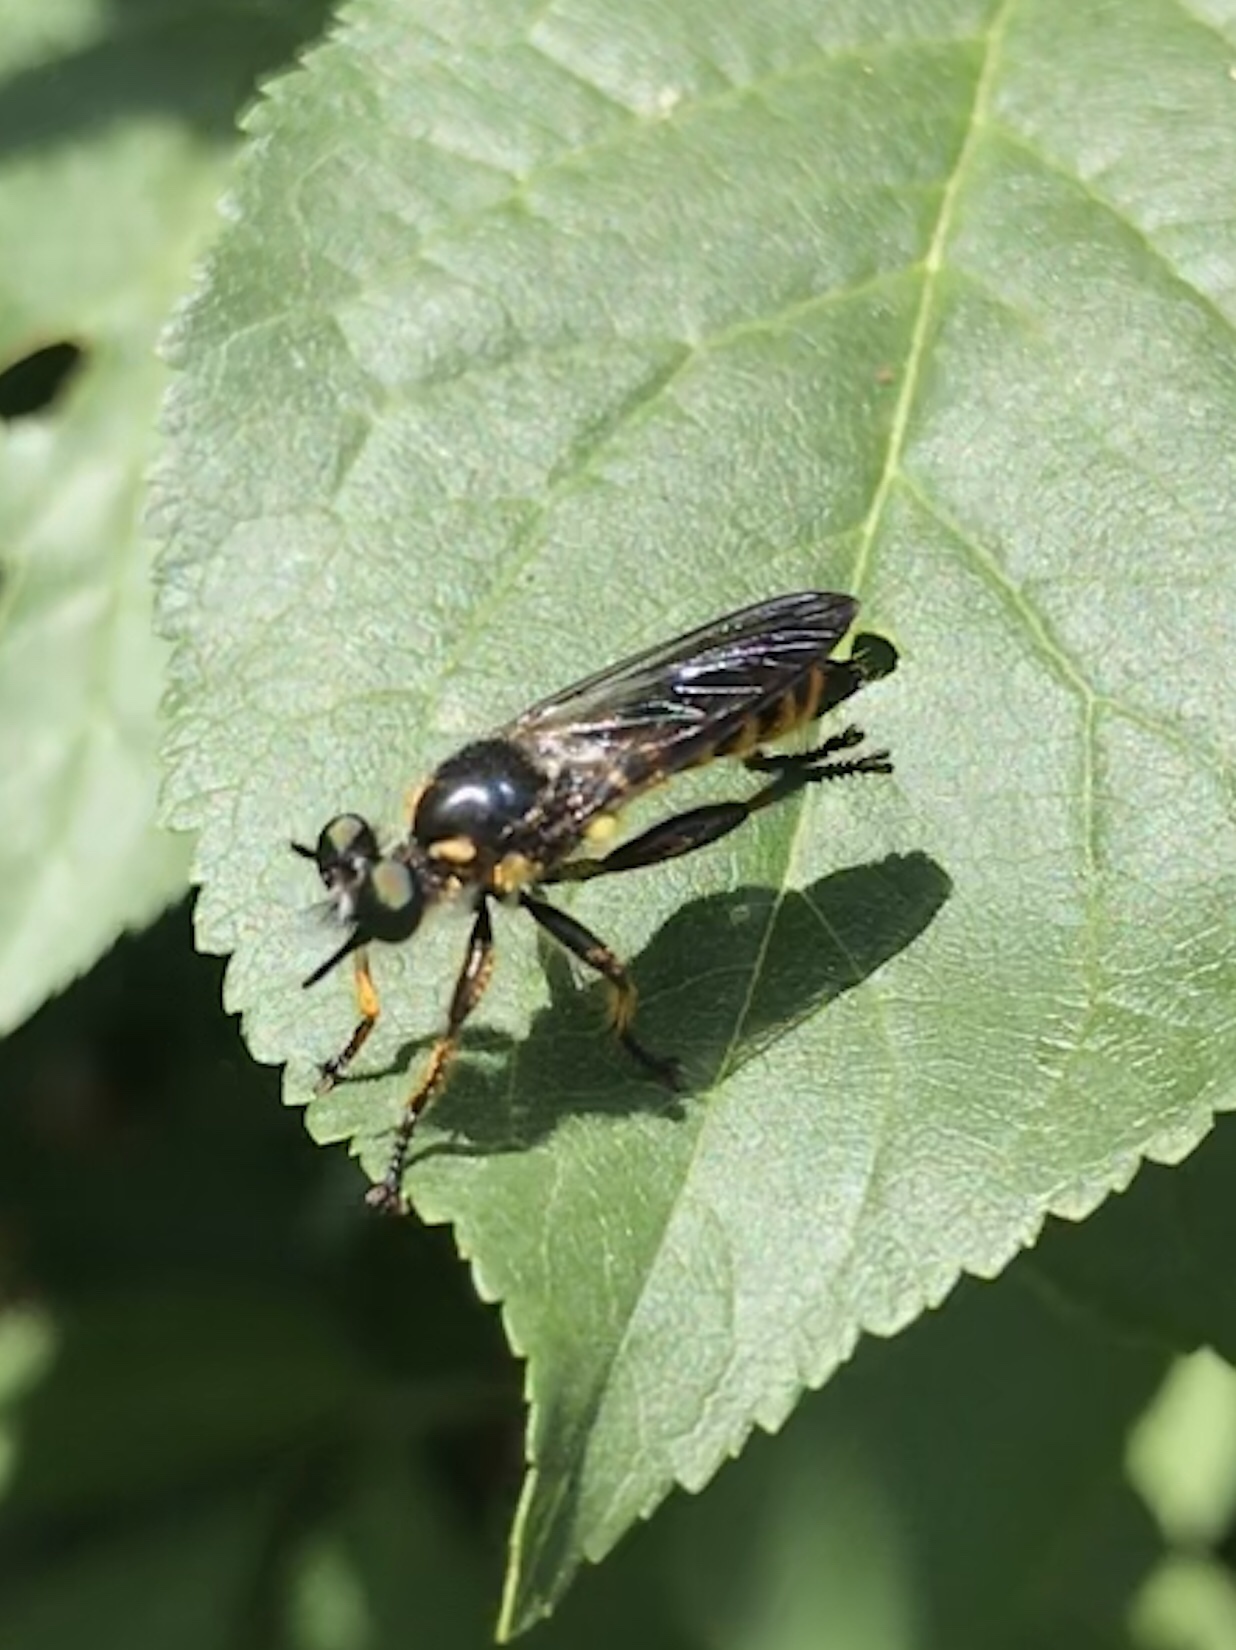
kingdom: Animalia
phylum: Arthropoda
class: Insecta
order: Diptera
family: Asilidae
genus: Lamyra
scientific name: Lamyra fimbriata
